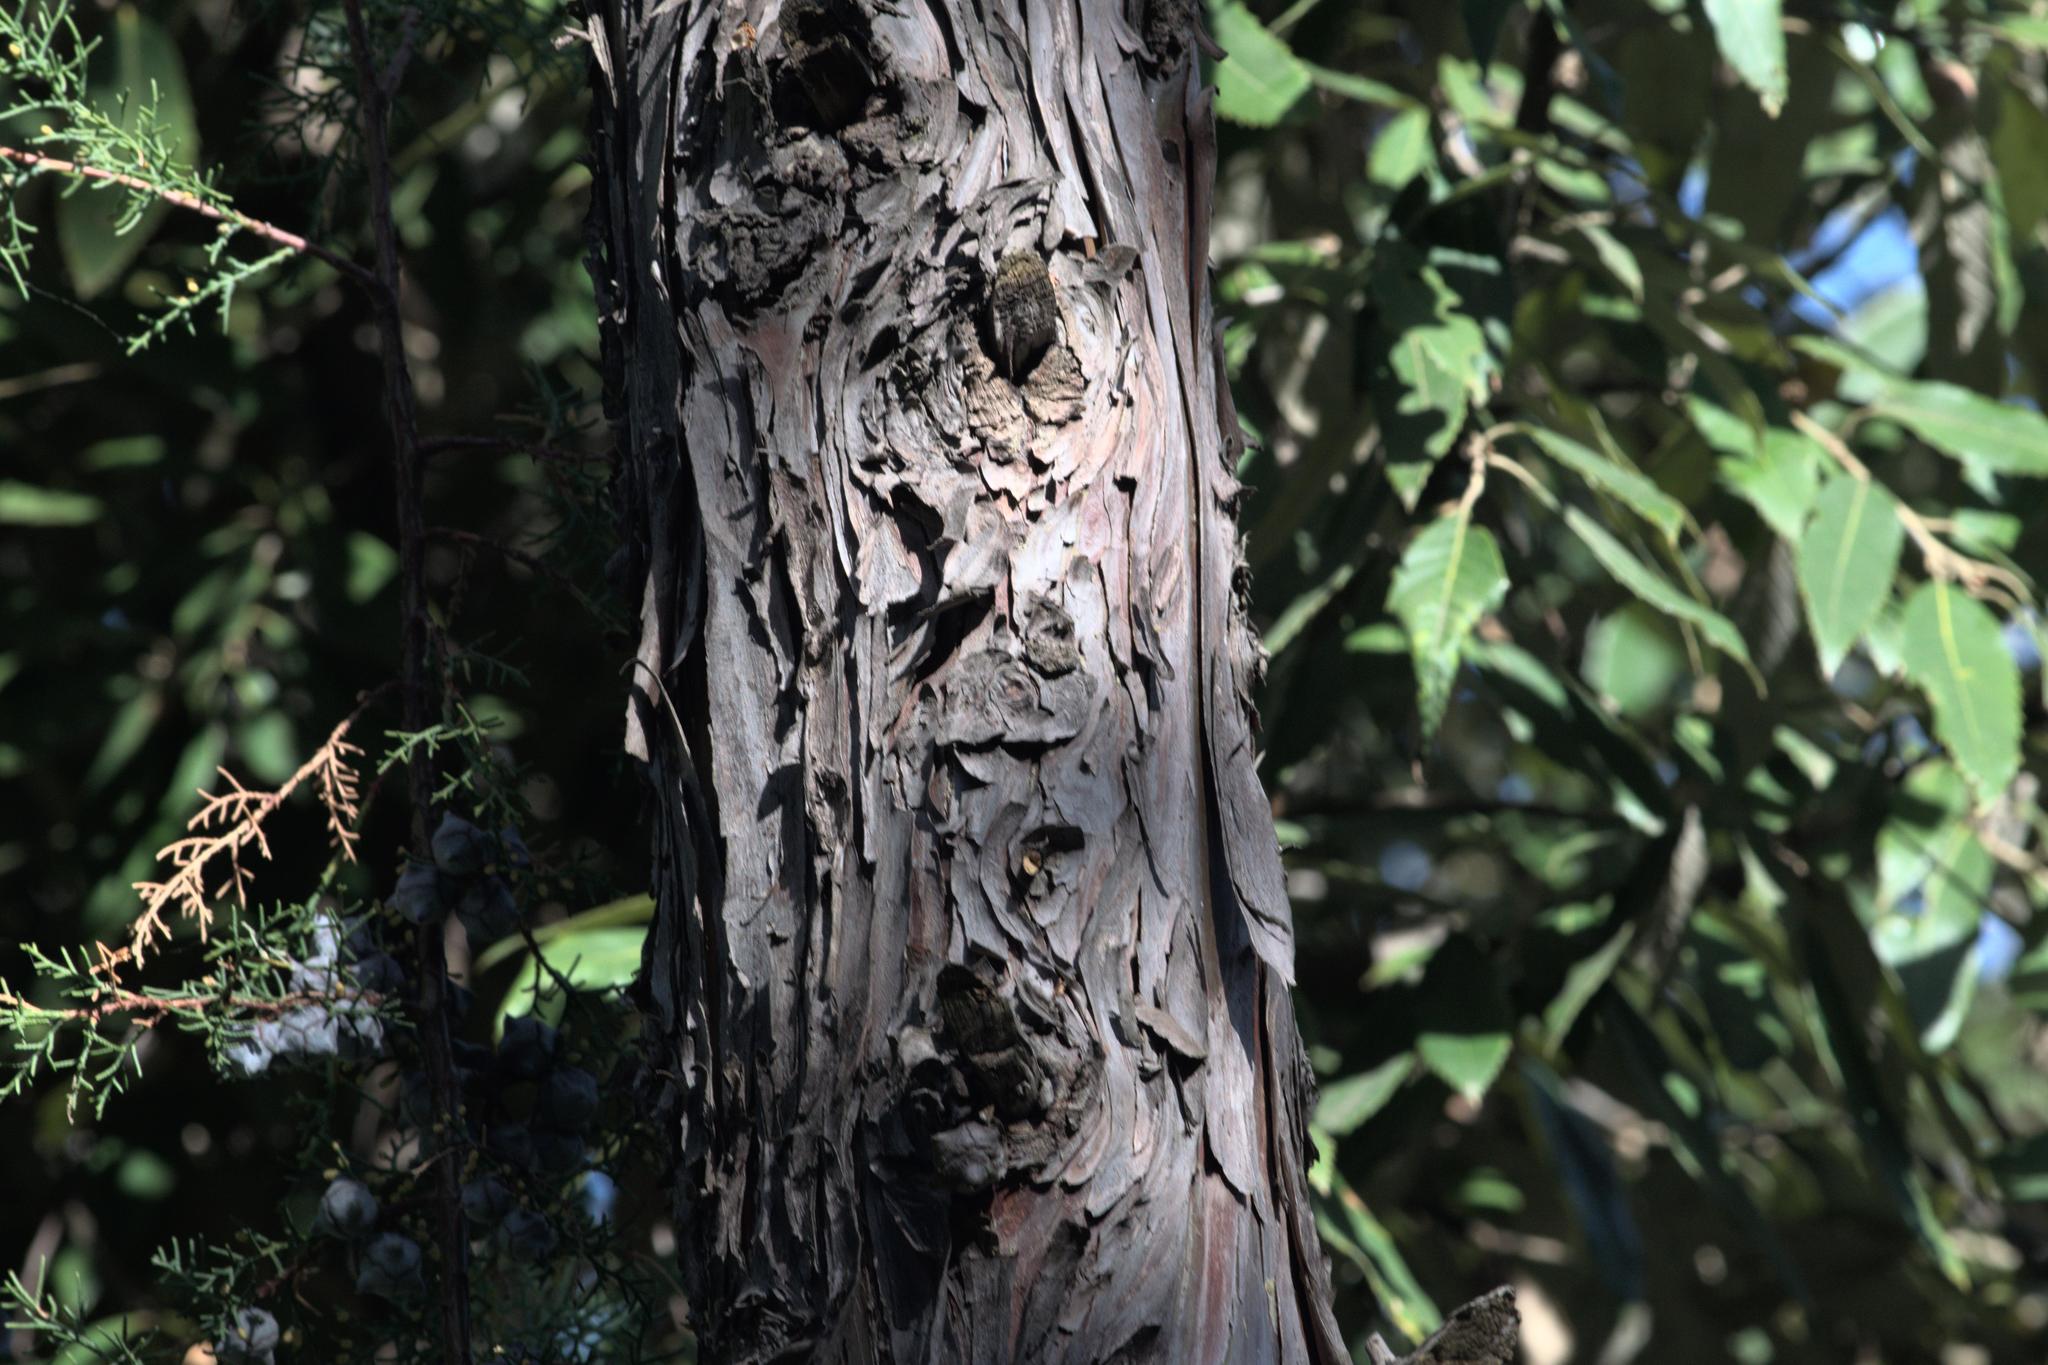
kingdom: Plantae
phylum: Tracheophyta
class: Pinopsida
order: Pinales
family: Cupressaceae
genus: Cupressus
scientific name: Cupressus torulosa
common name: Himalayan cypress
